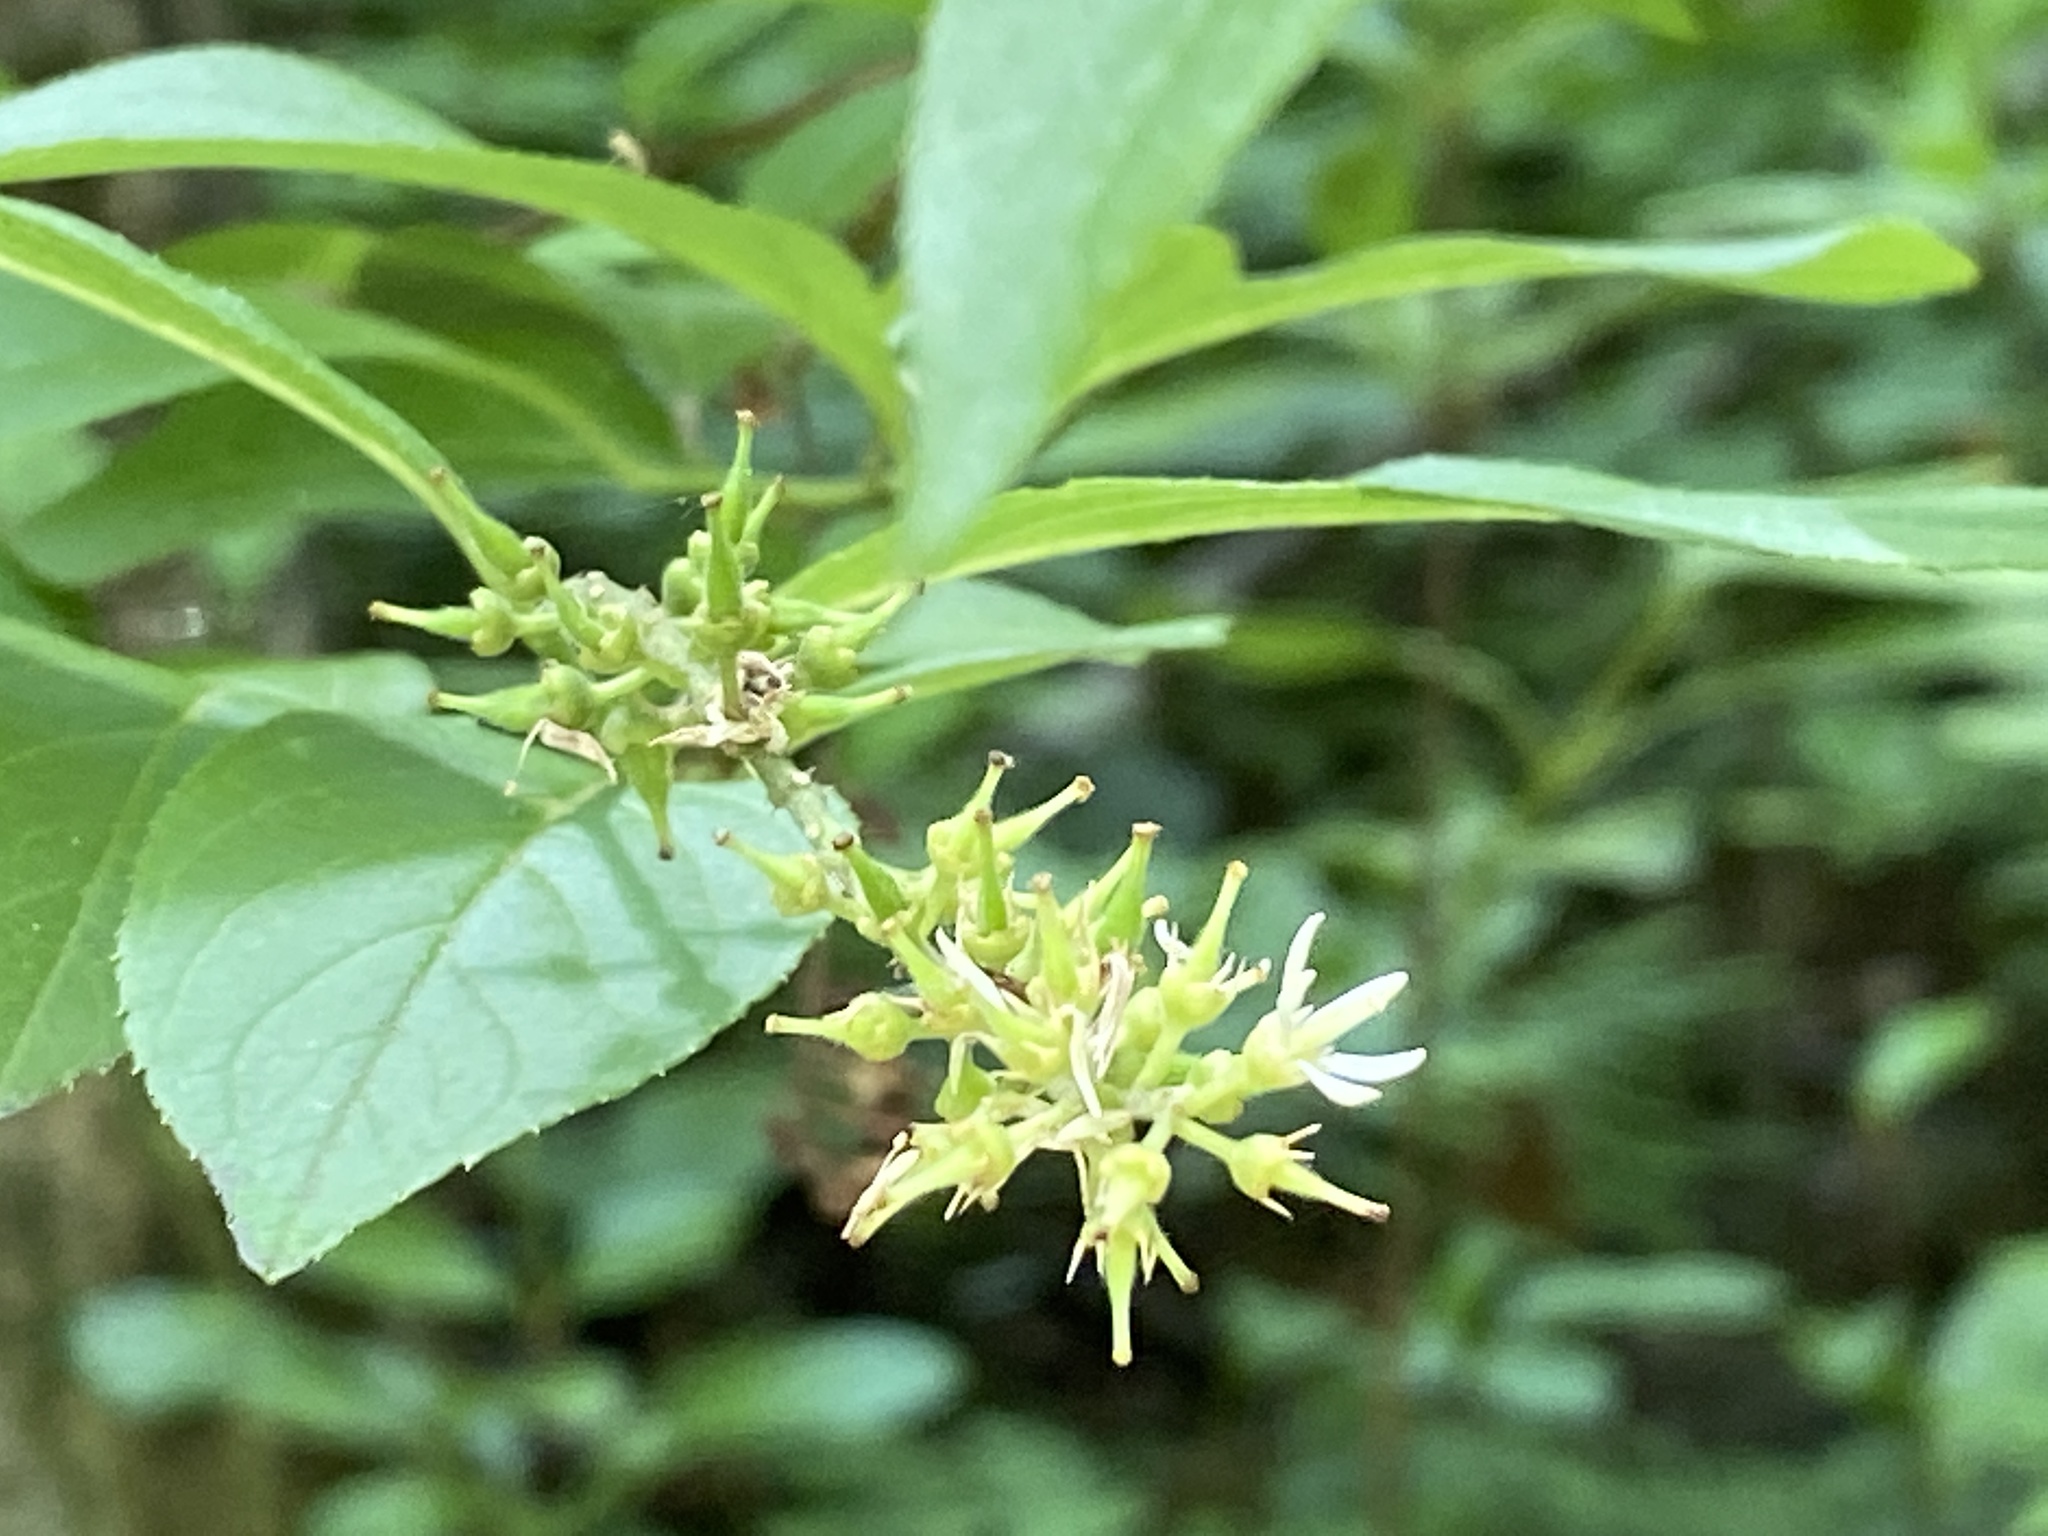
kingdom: Plantae
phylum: Tracheophyta
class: Magnoliopsida
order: Saxifragales
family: Iteaceae
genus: Itea
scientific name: Itea virginica
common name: Sweetspire
